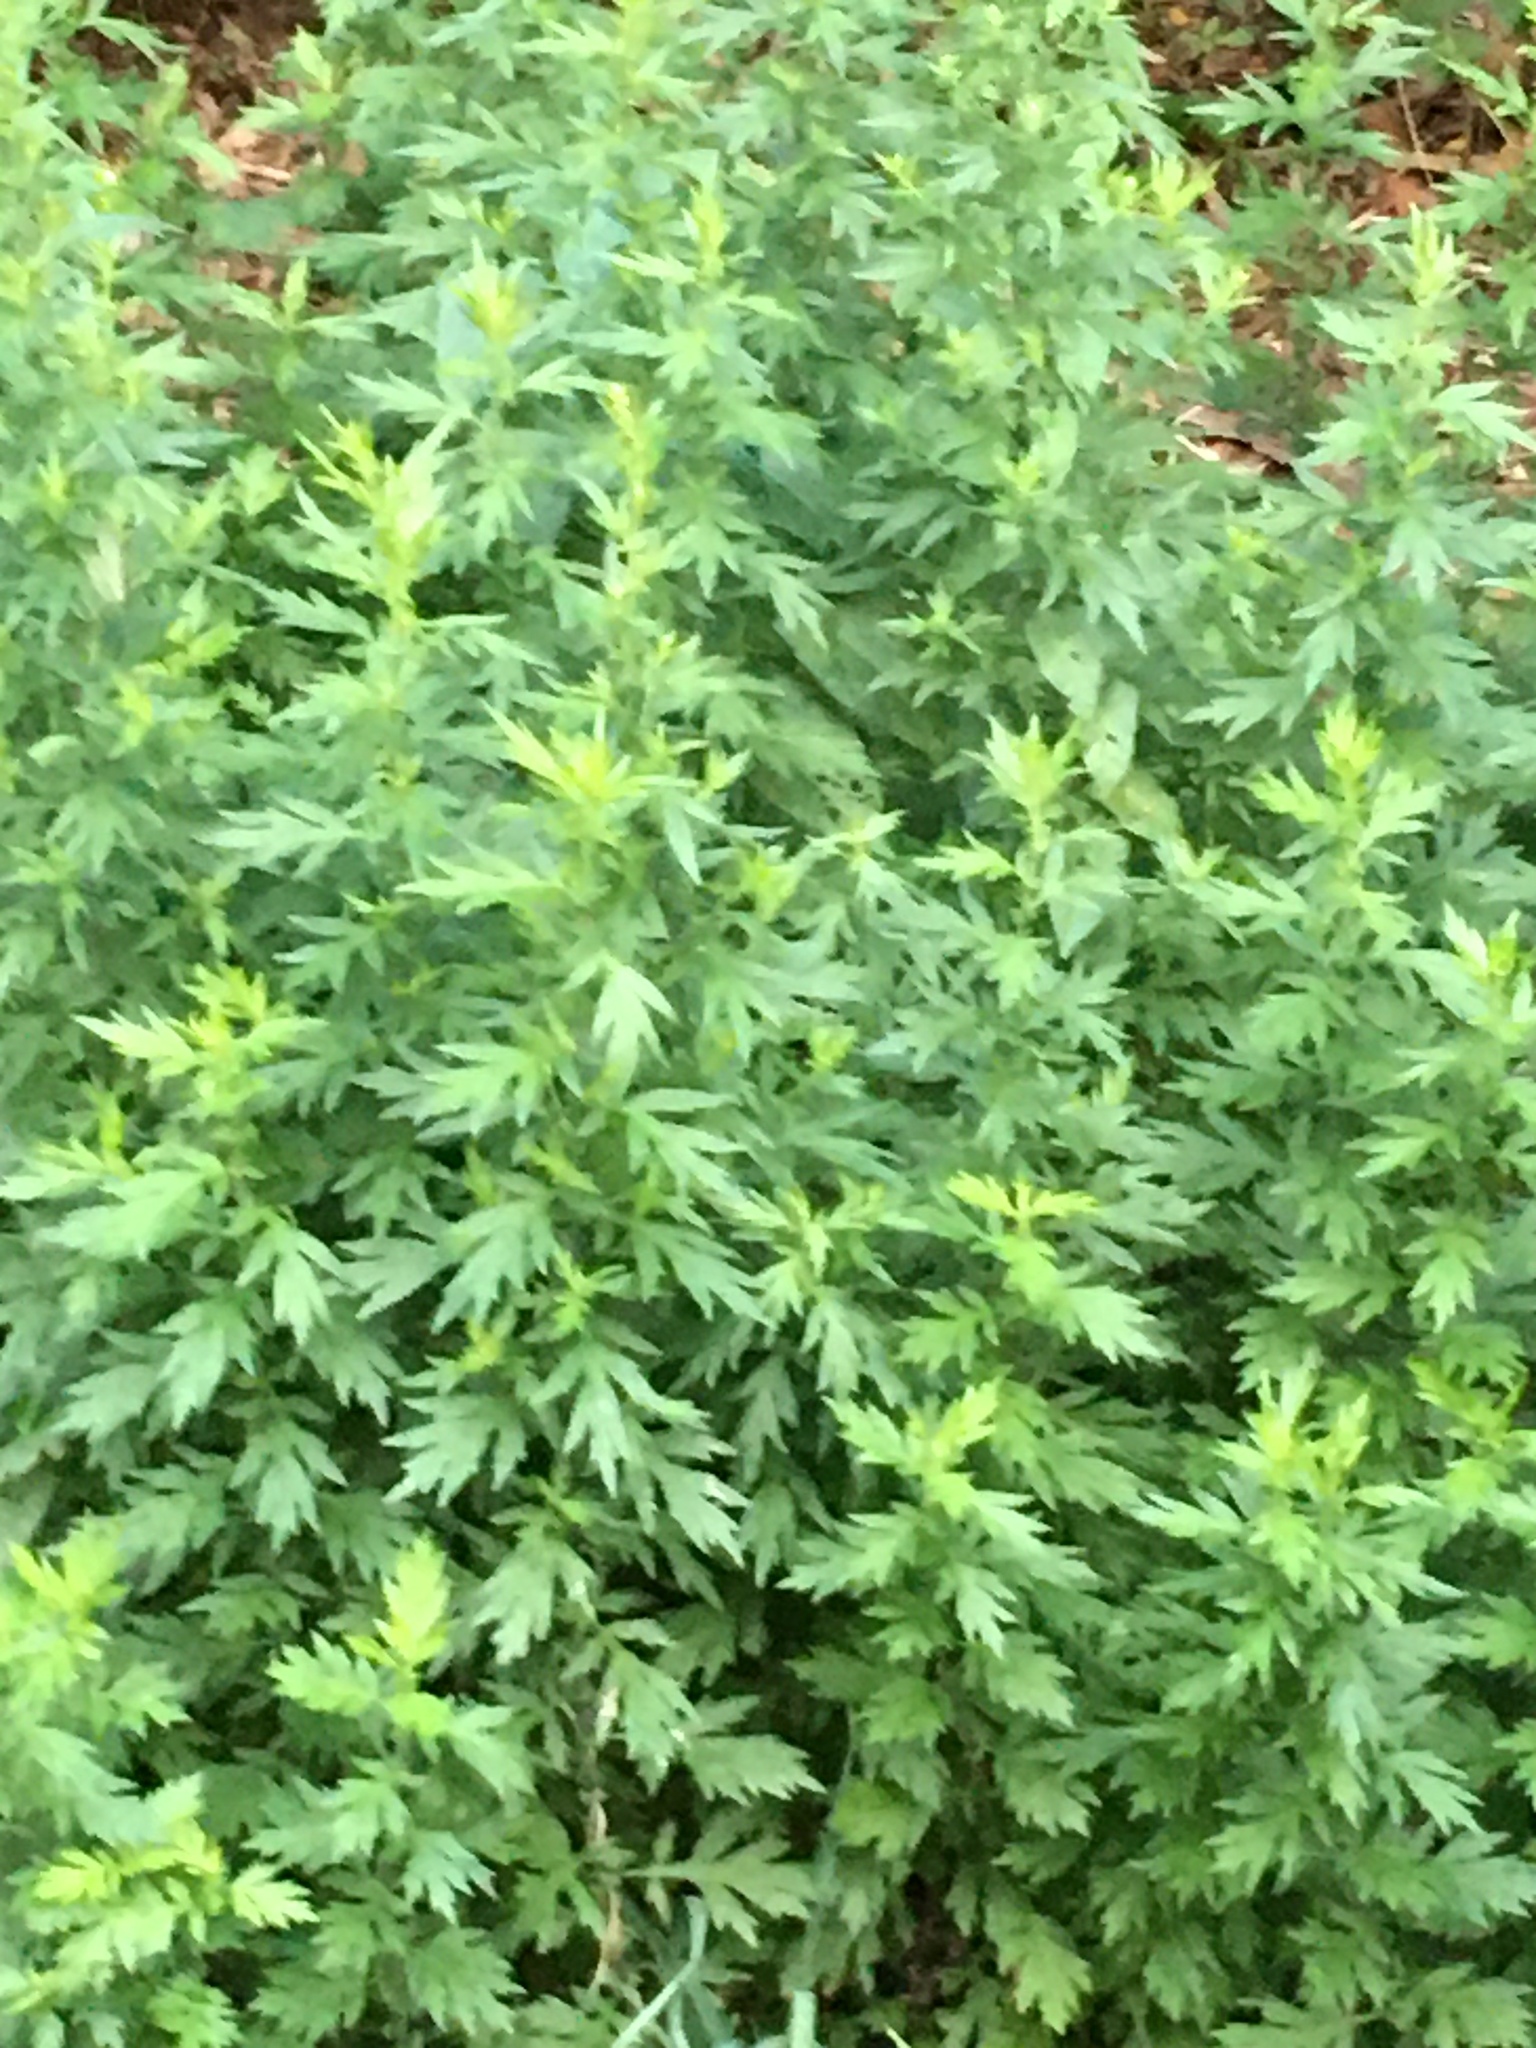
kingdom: Plantae
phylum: Tracheophyta
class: Magnoliopsida
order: Asterales
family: Asteraceae
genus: Artemisia
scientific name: Artemisia vulgaris
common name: Mugwort
